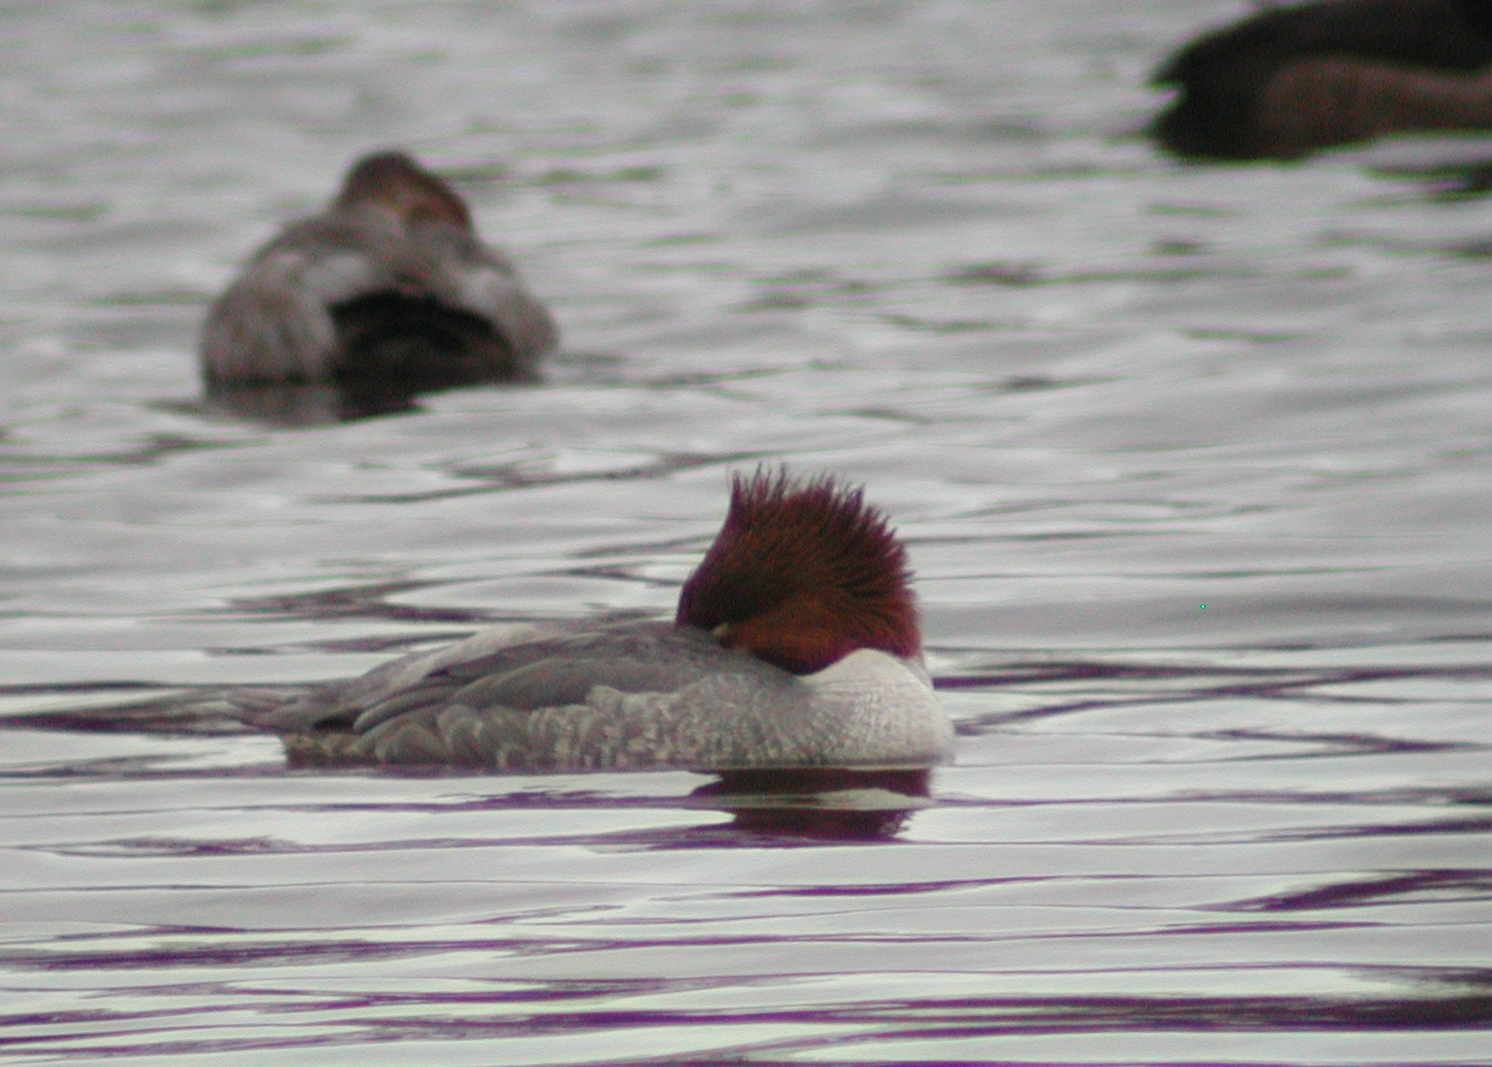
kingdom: Animalia
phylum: Chordata
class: Aves
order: Anseriformes
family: Anatidae
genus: Mergus
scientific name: Mergus merganser
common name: Common merganser
